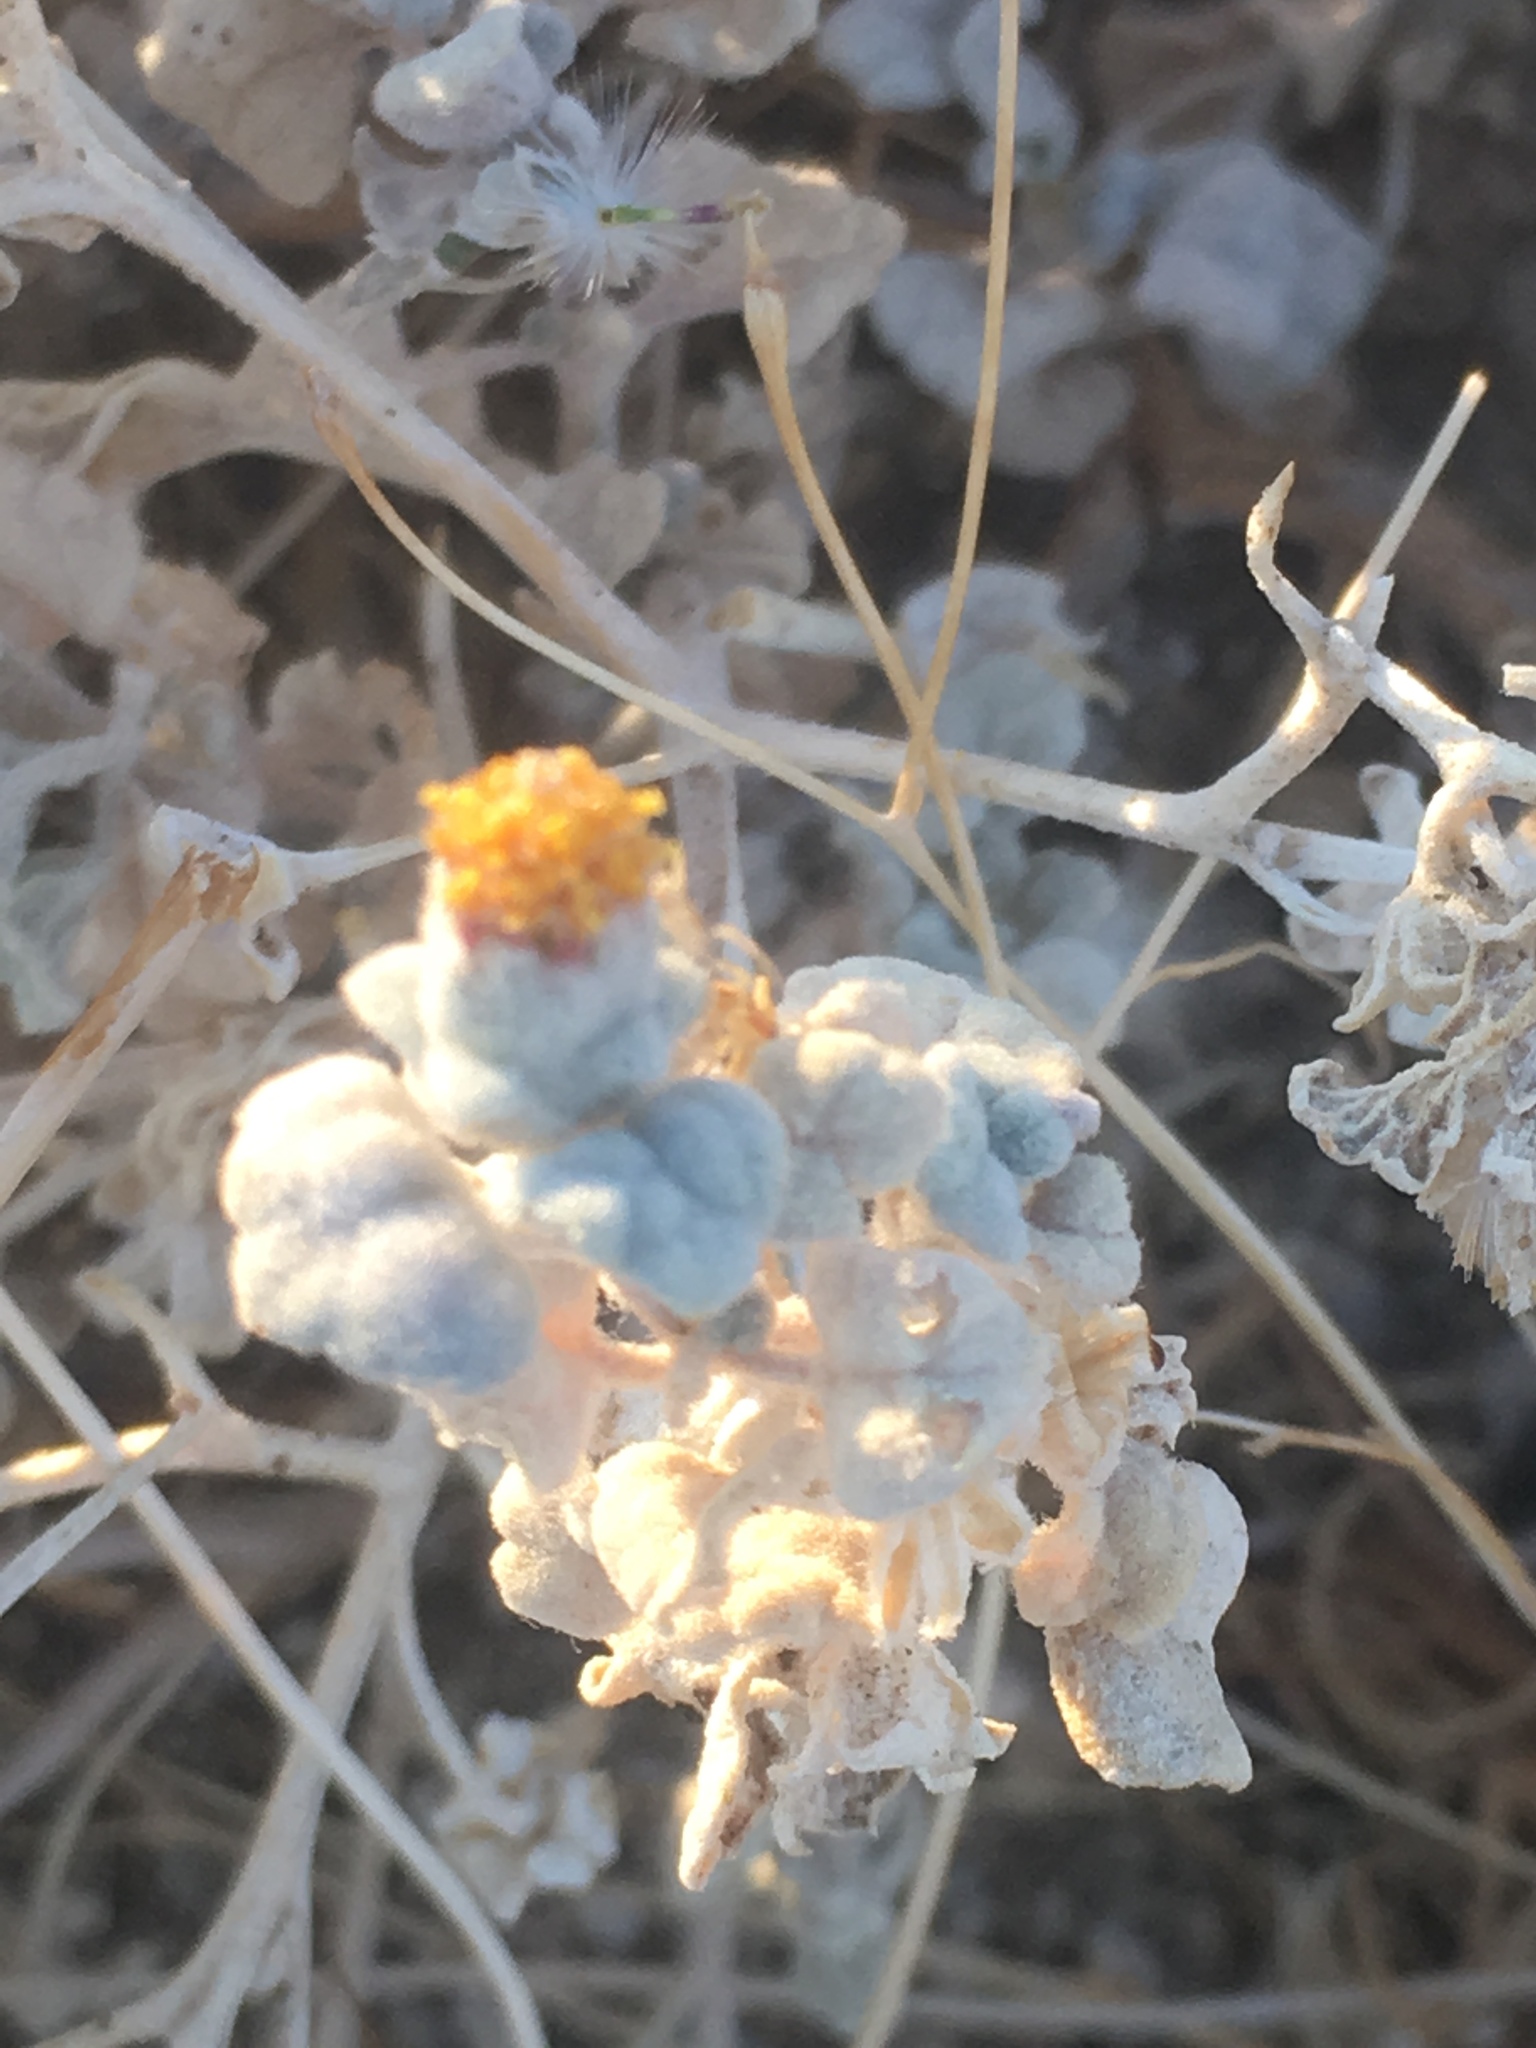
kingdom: Plantae
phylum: Tracheophyta
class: Magnoliopsida
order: Asterales
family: Asteraceae
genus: Psathyrotes
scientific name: Psathyrotes ramosissima
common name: Turtleback
